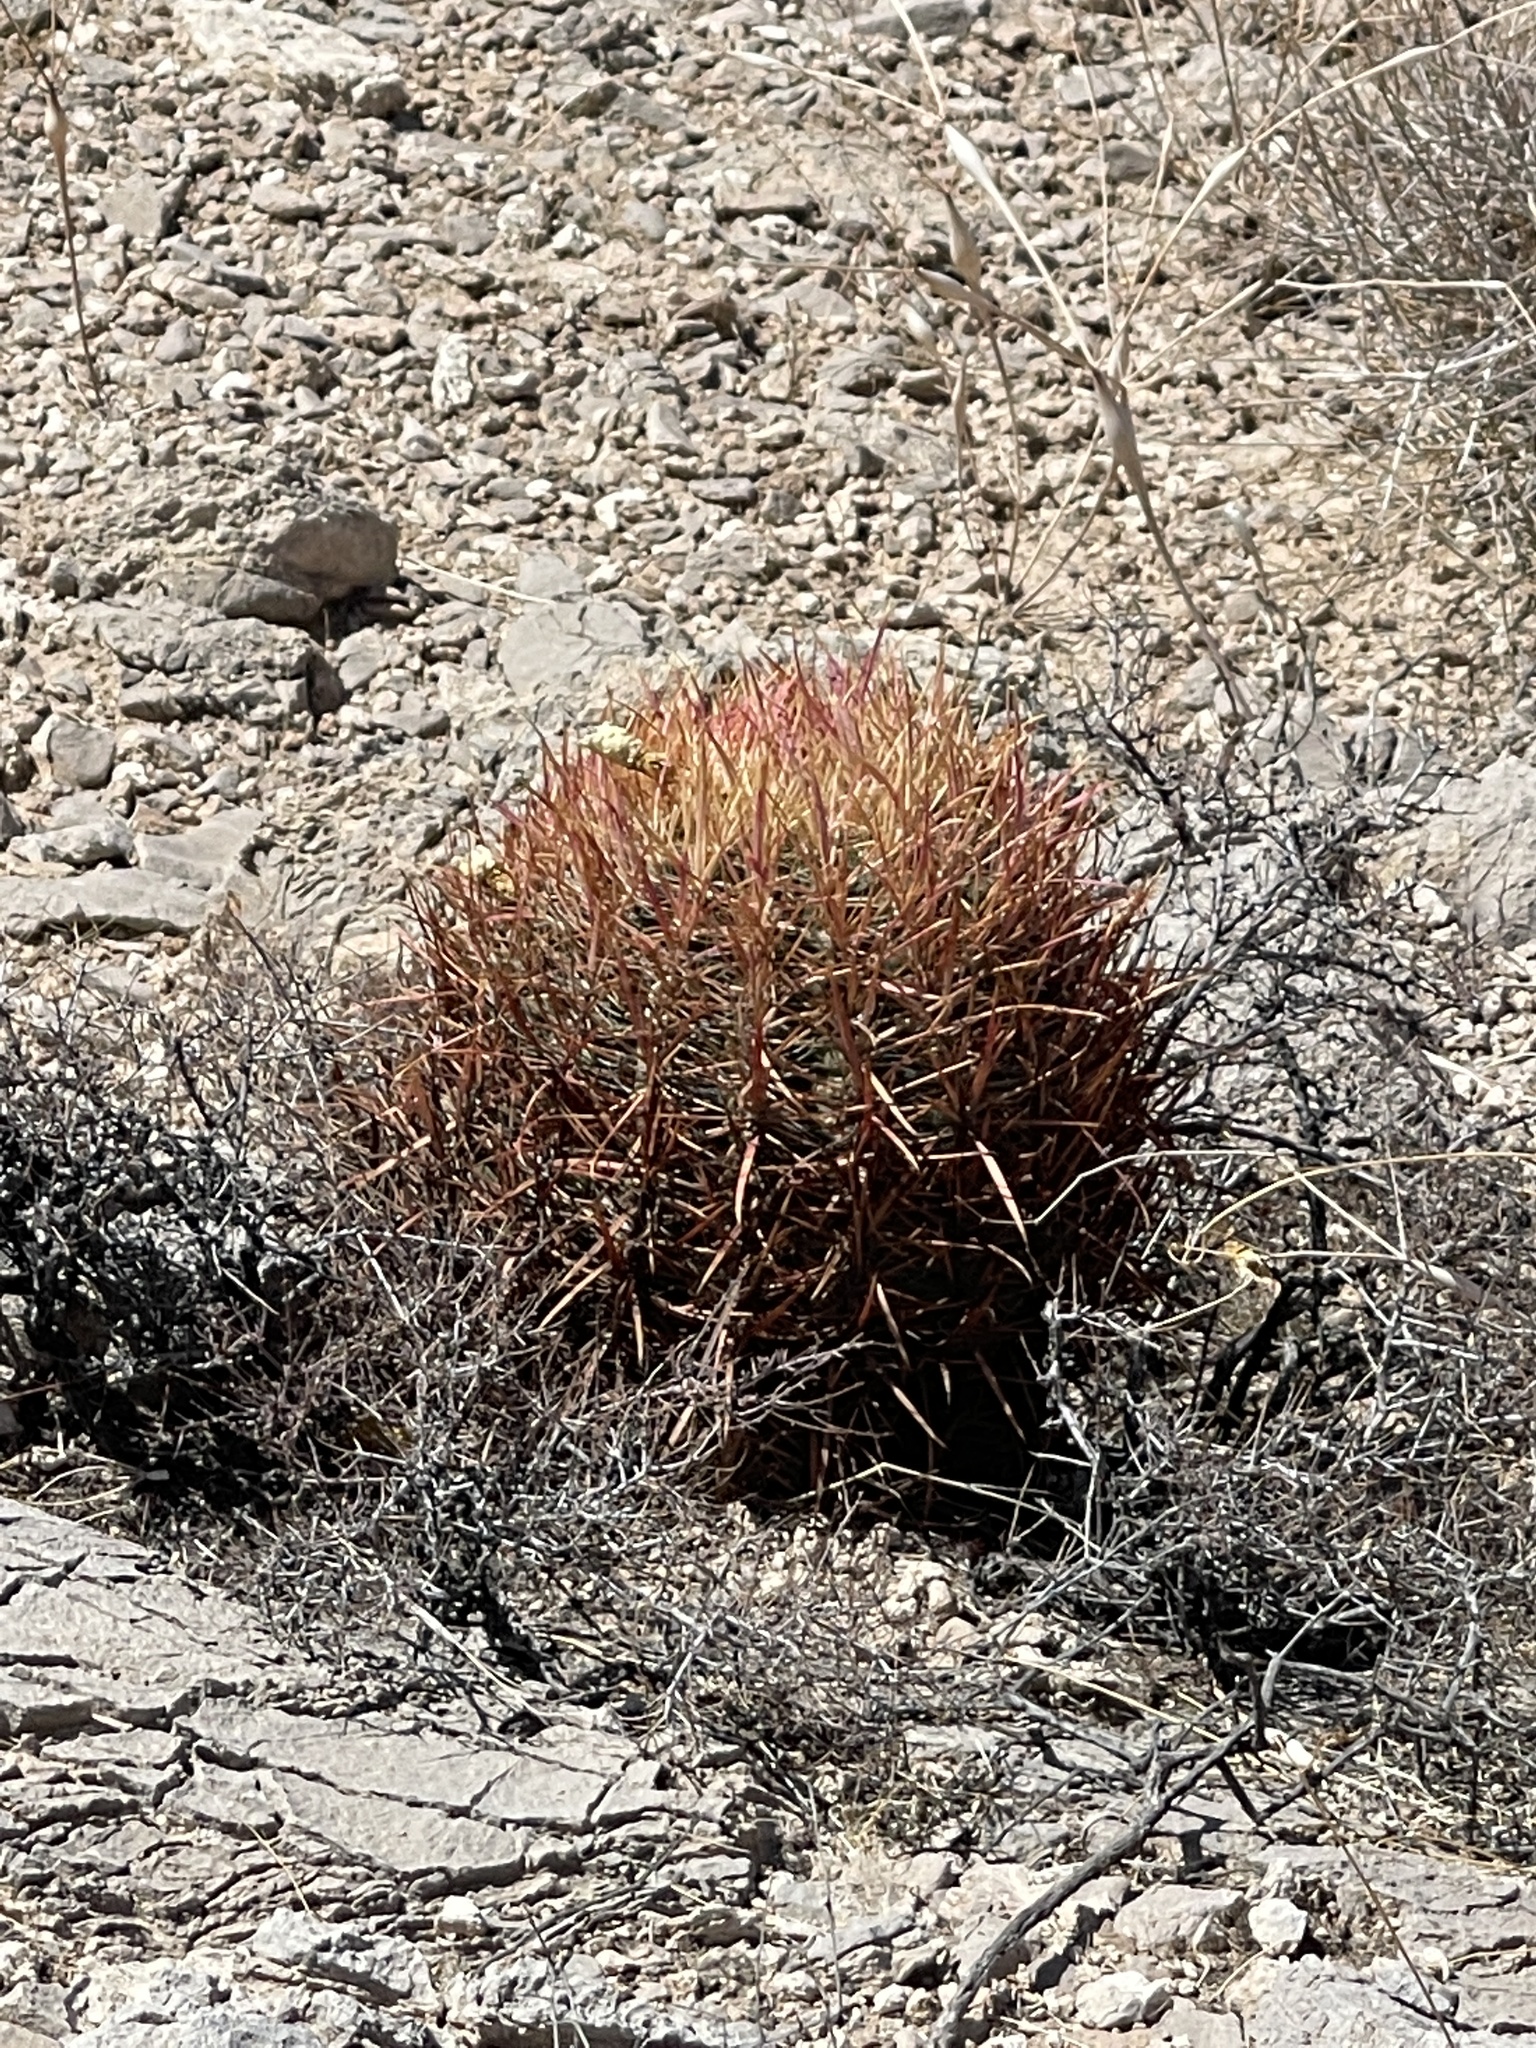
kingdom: Plantae
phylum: Tracheophyta
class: Magnoliopsida
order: Caryophyllales
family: Cactaceae
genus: Ferocactus
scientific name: Ferocactus cylindraceus
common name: California barrel cactus
